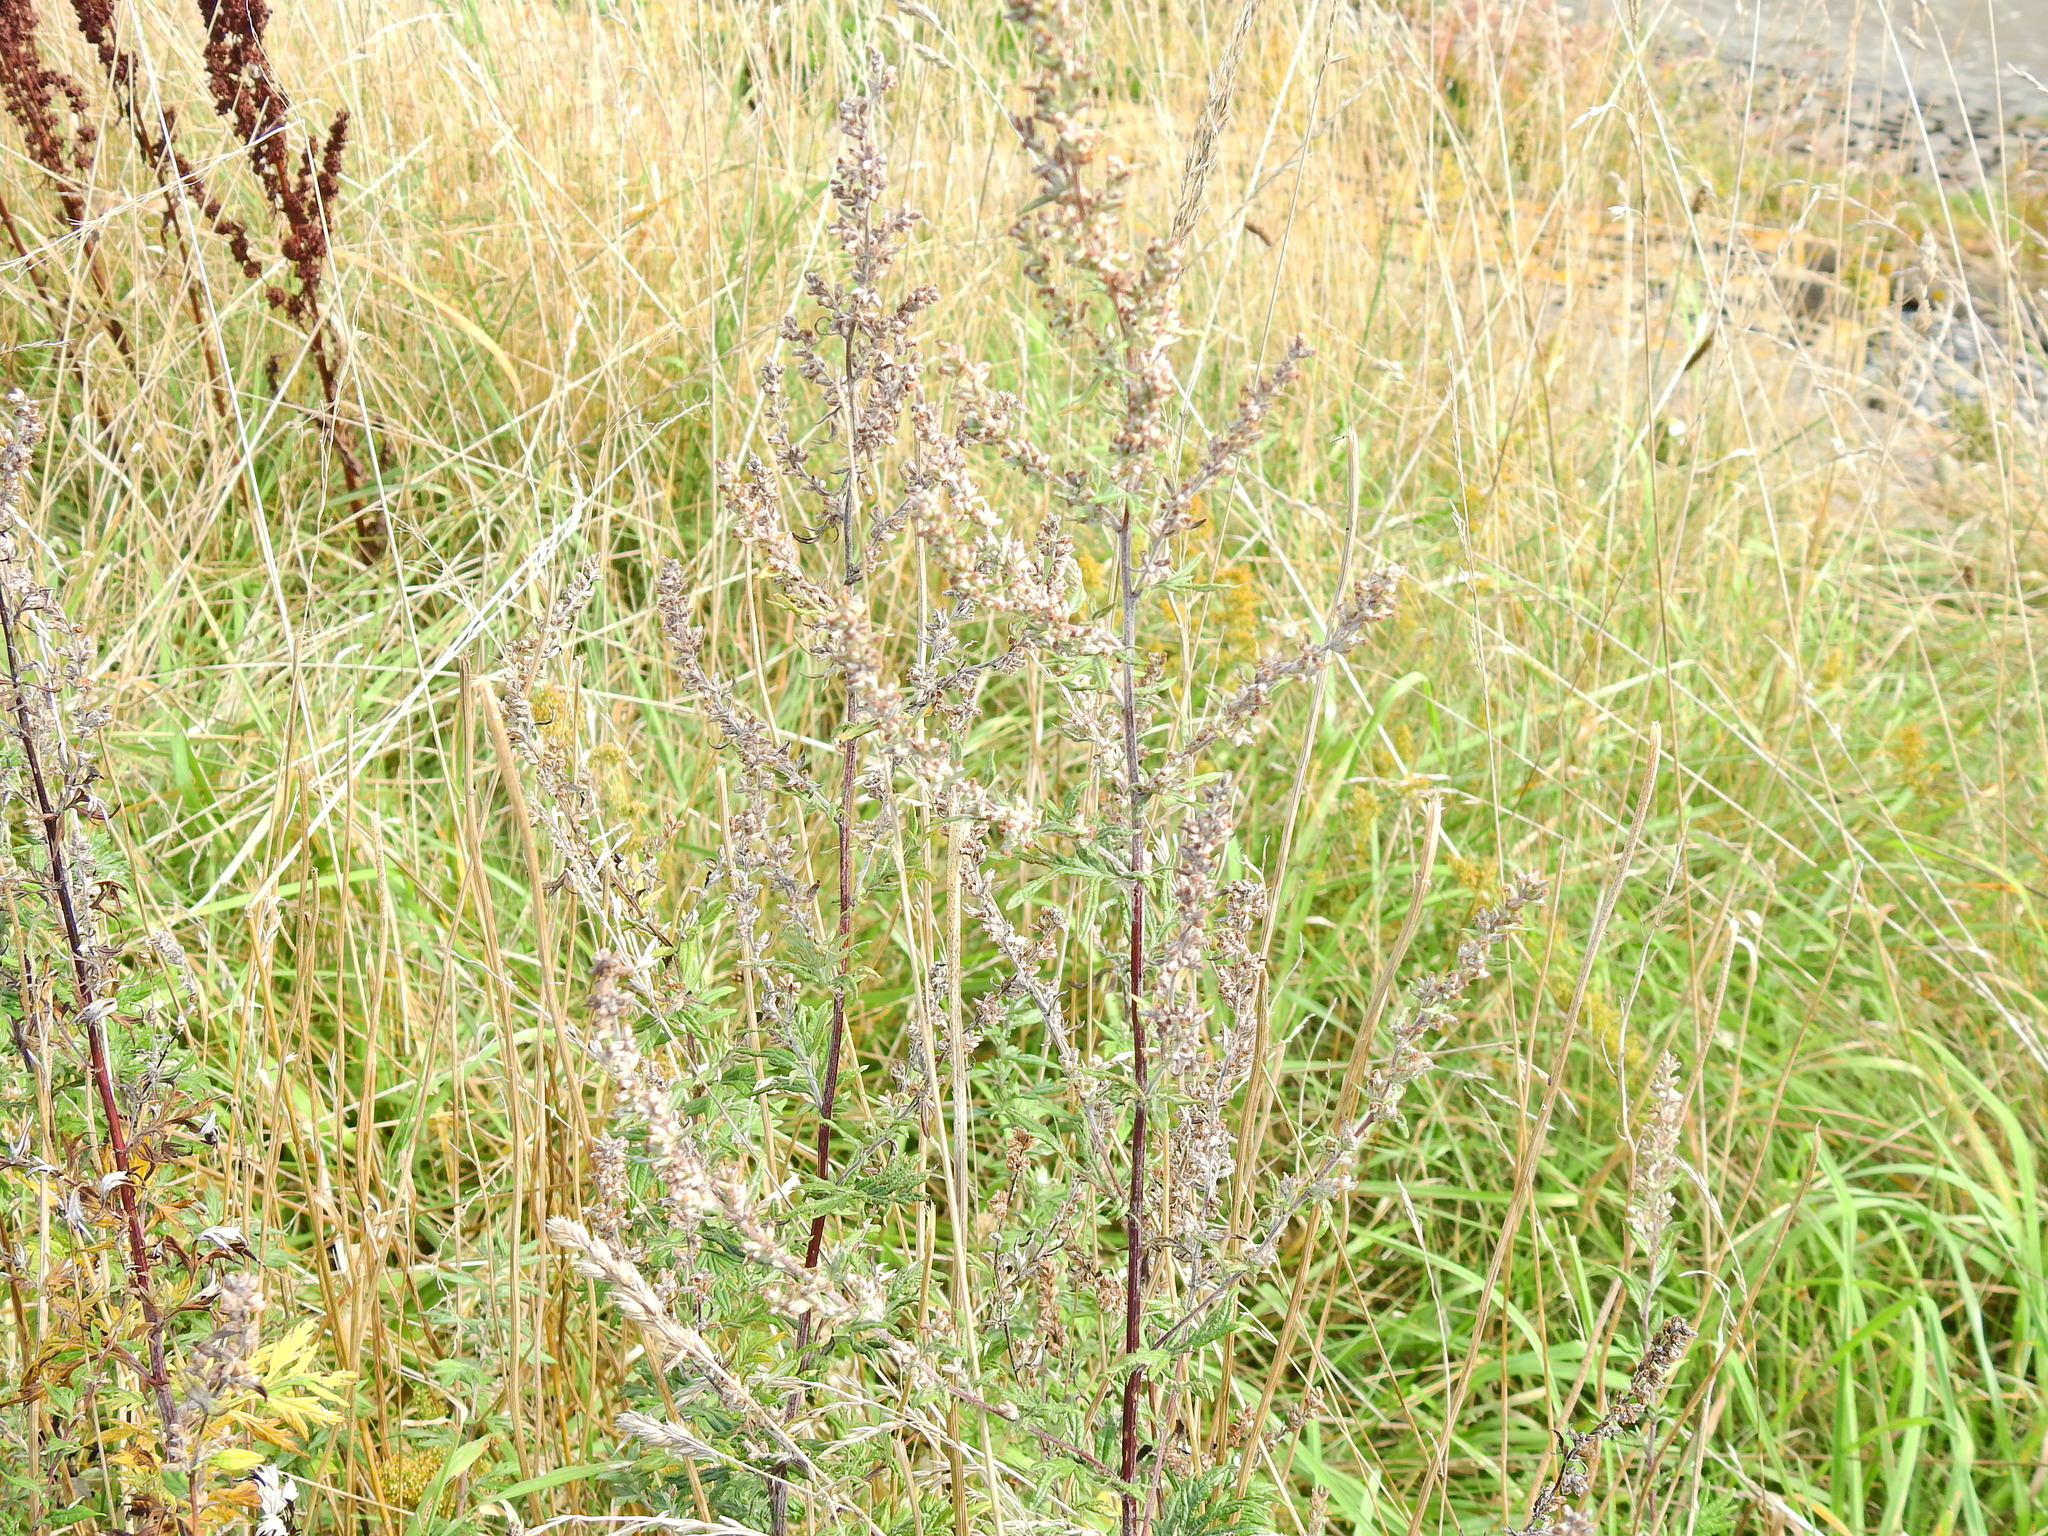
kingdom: Plantae
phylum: Tracheophyta
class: Magnoliopsida
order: Asterales
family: Asteraceae
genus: Artemisia
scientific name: Artemisia vulgaris
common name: Mugwort
